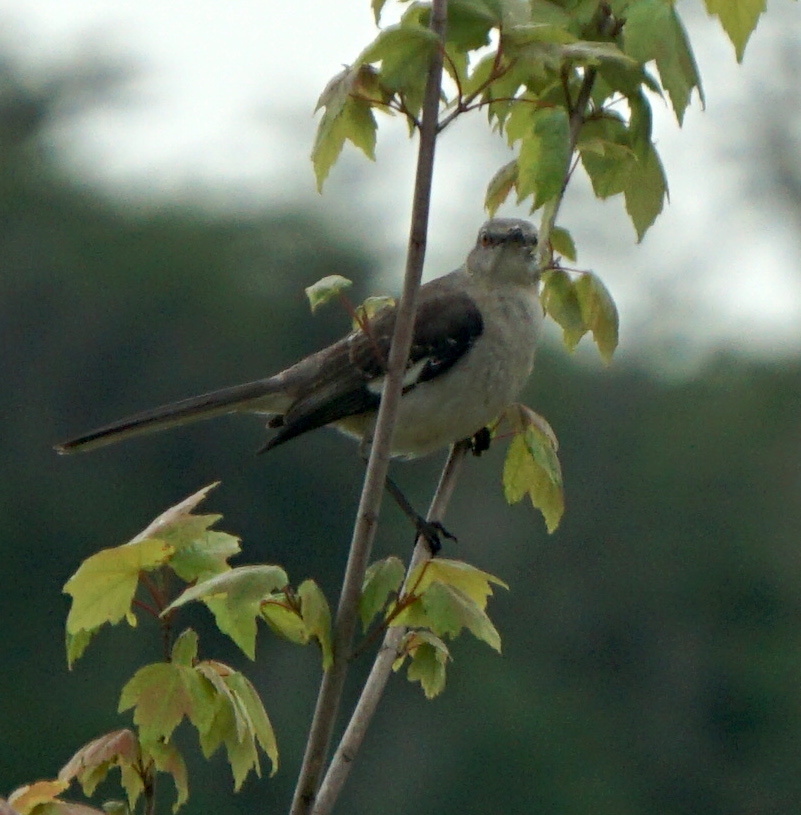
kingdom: Animalia
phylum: Chordata
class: Aves
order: Passeriformes
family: Mimidae
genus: Mimus
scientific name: Mimus polyglottos
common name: Northern mockingbird
